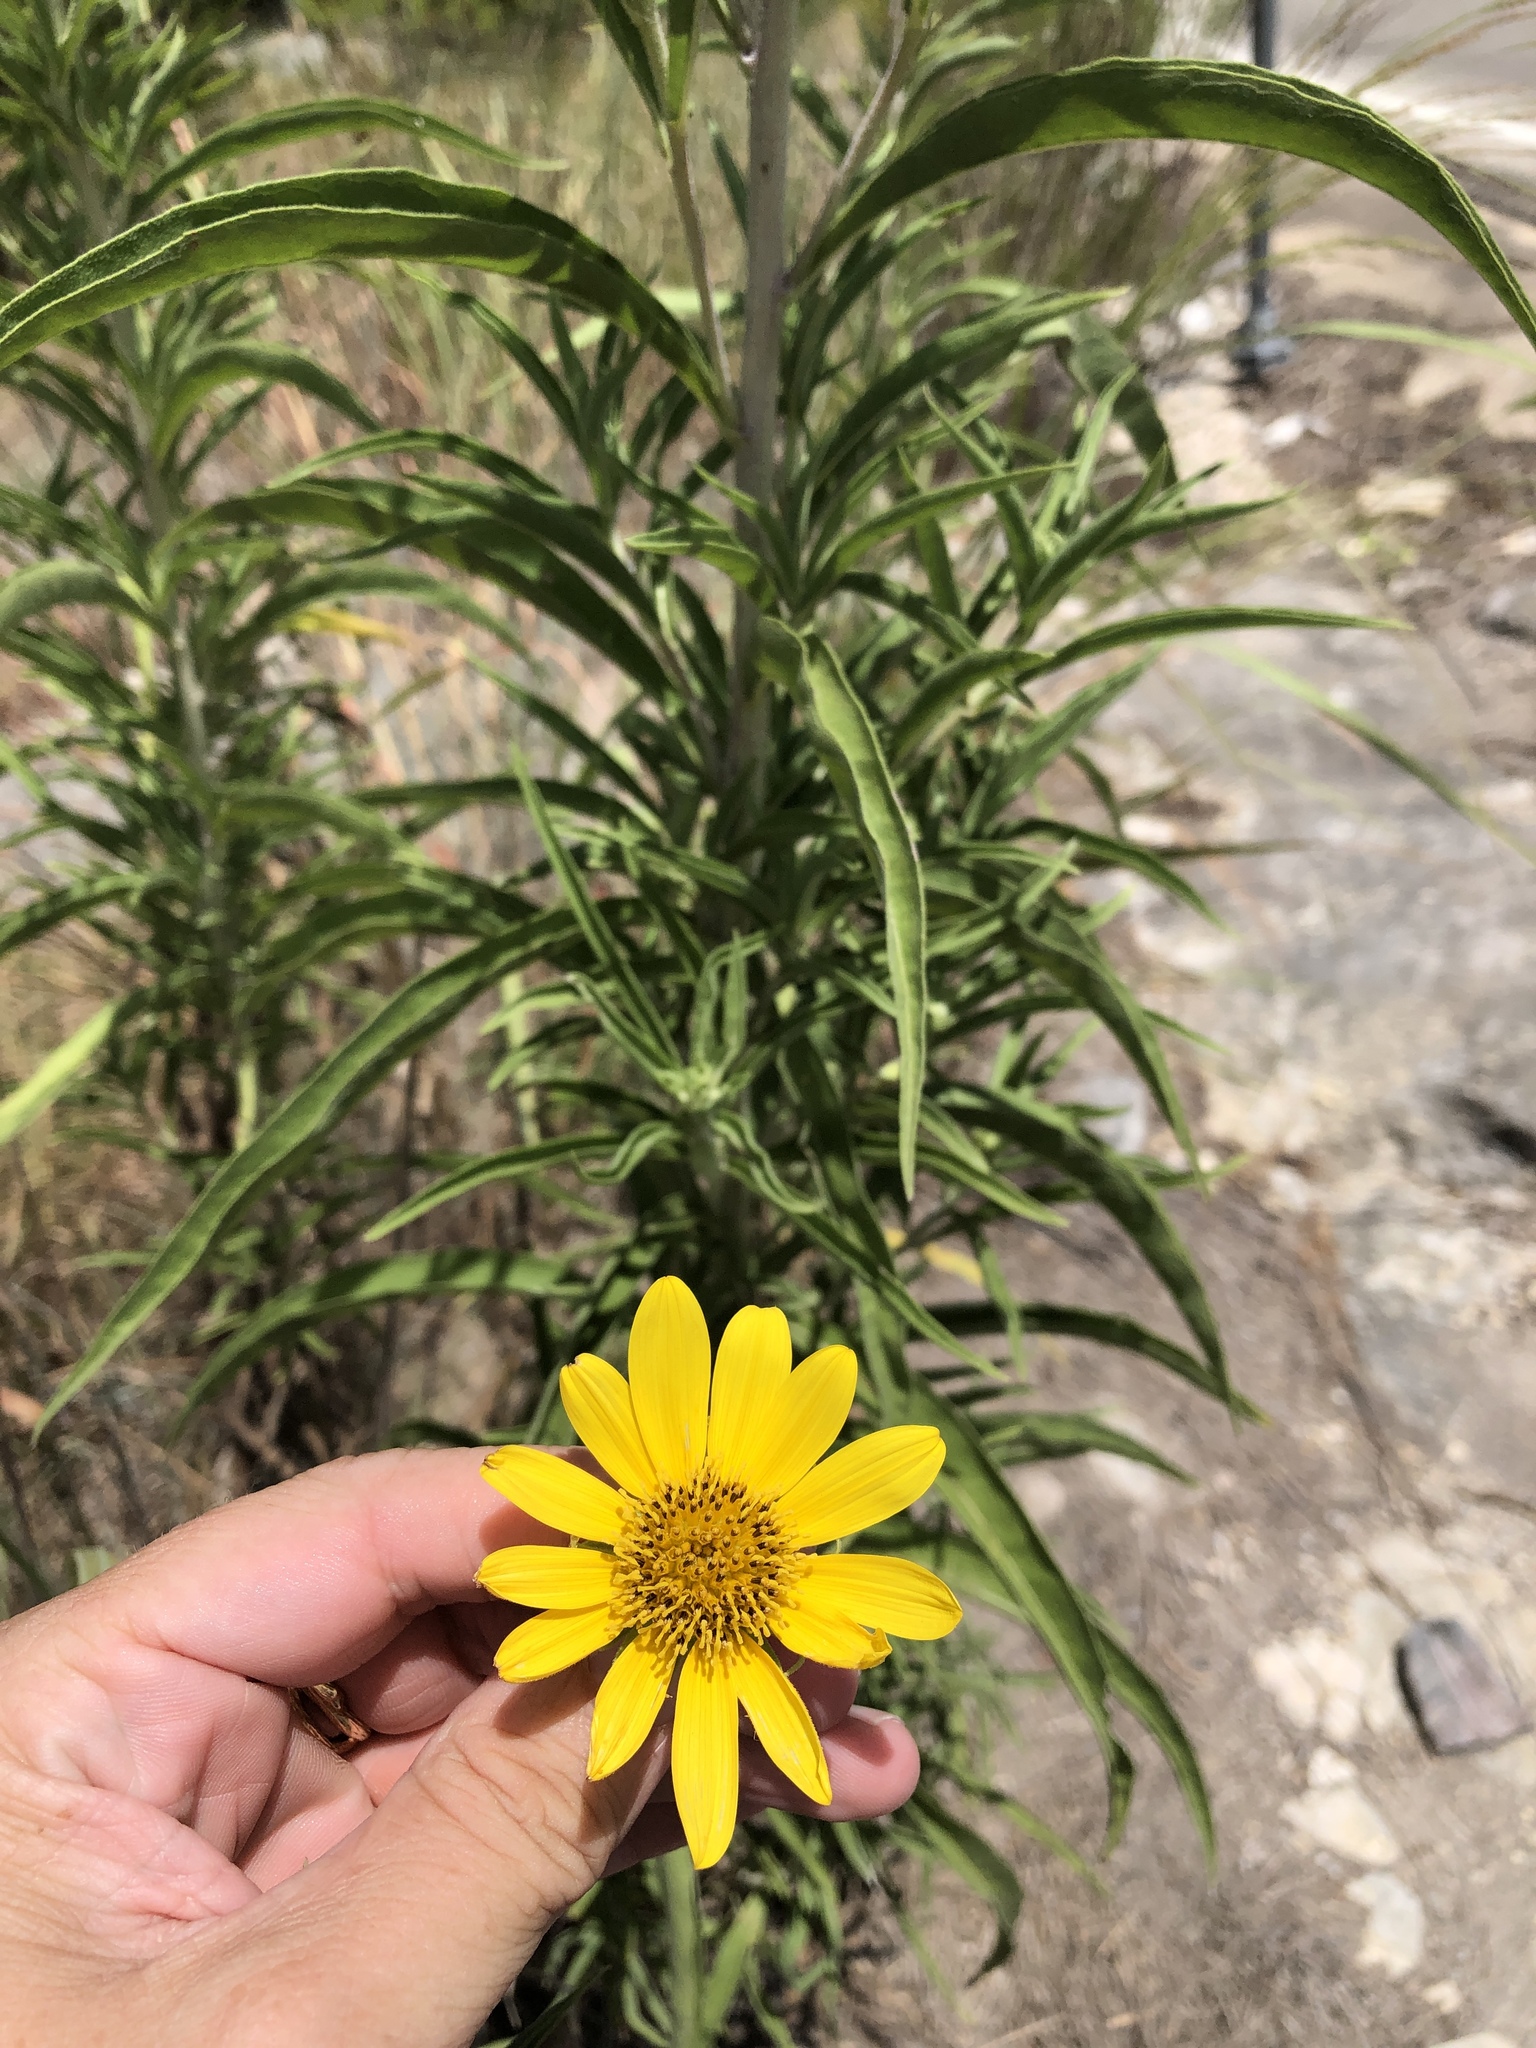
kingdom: Plantae
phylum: Tracheophyta
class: Magnoliopsida
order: Asterales
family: Asteraceae
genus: Helianthus
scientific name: Helianthus maximiliani
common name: Maximilian's sunflower
